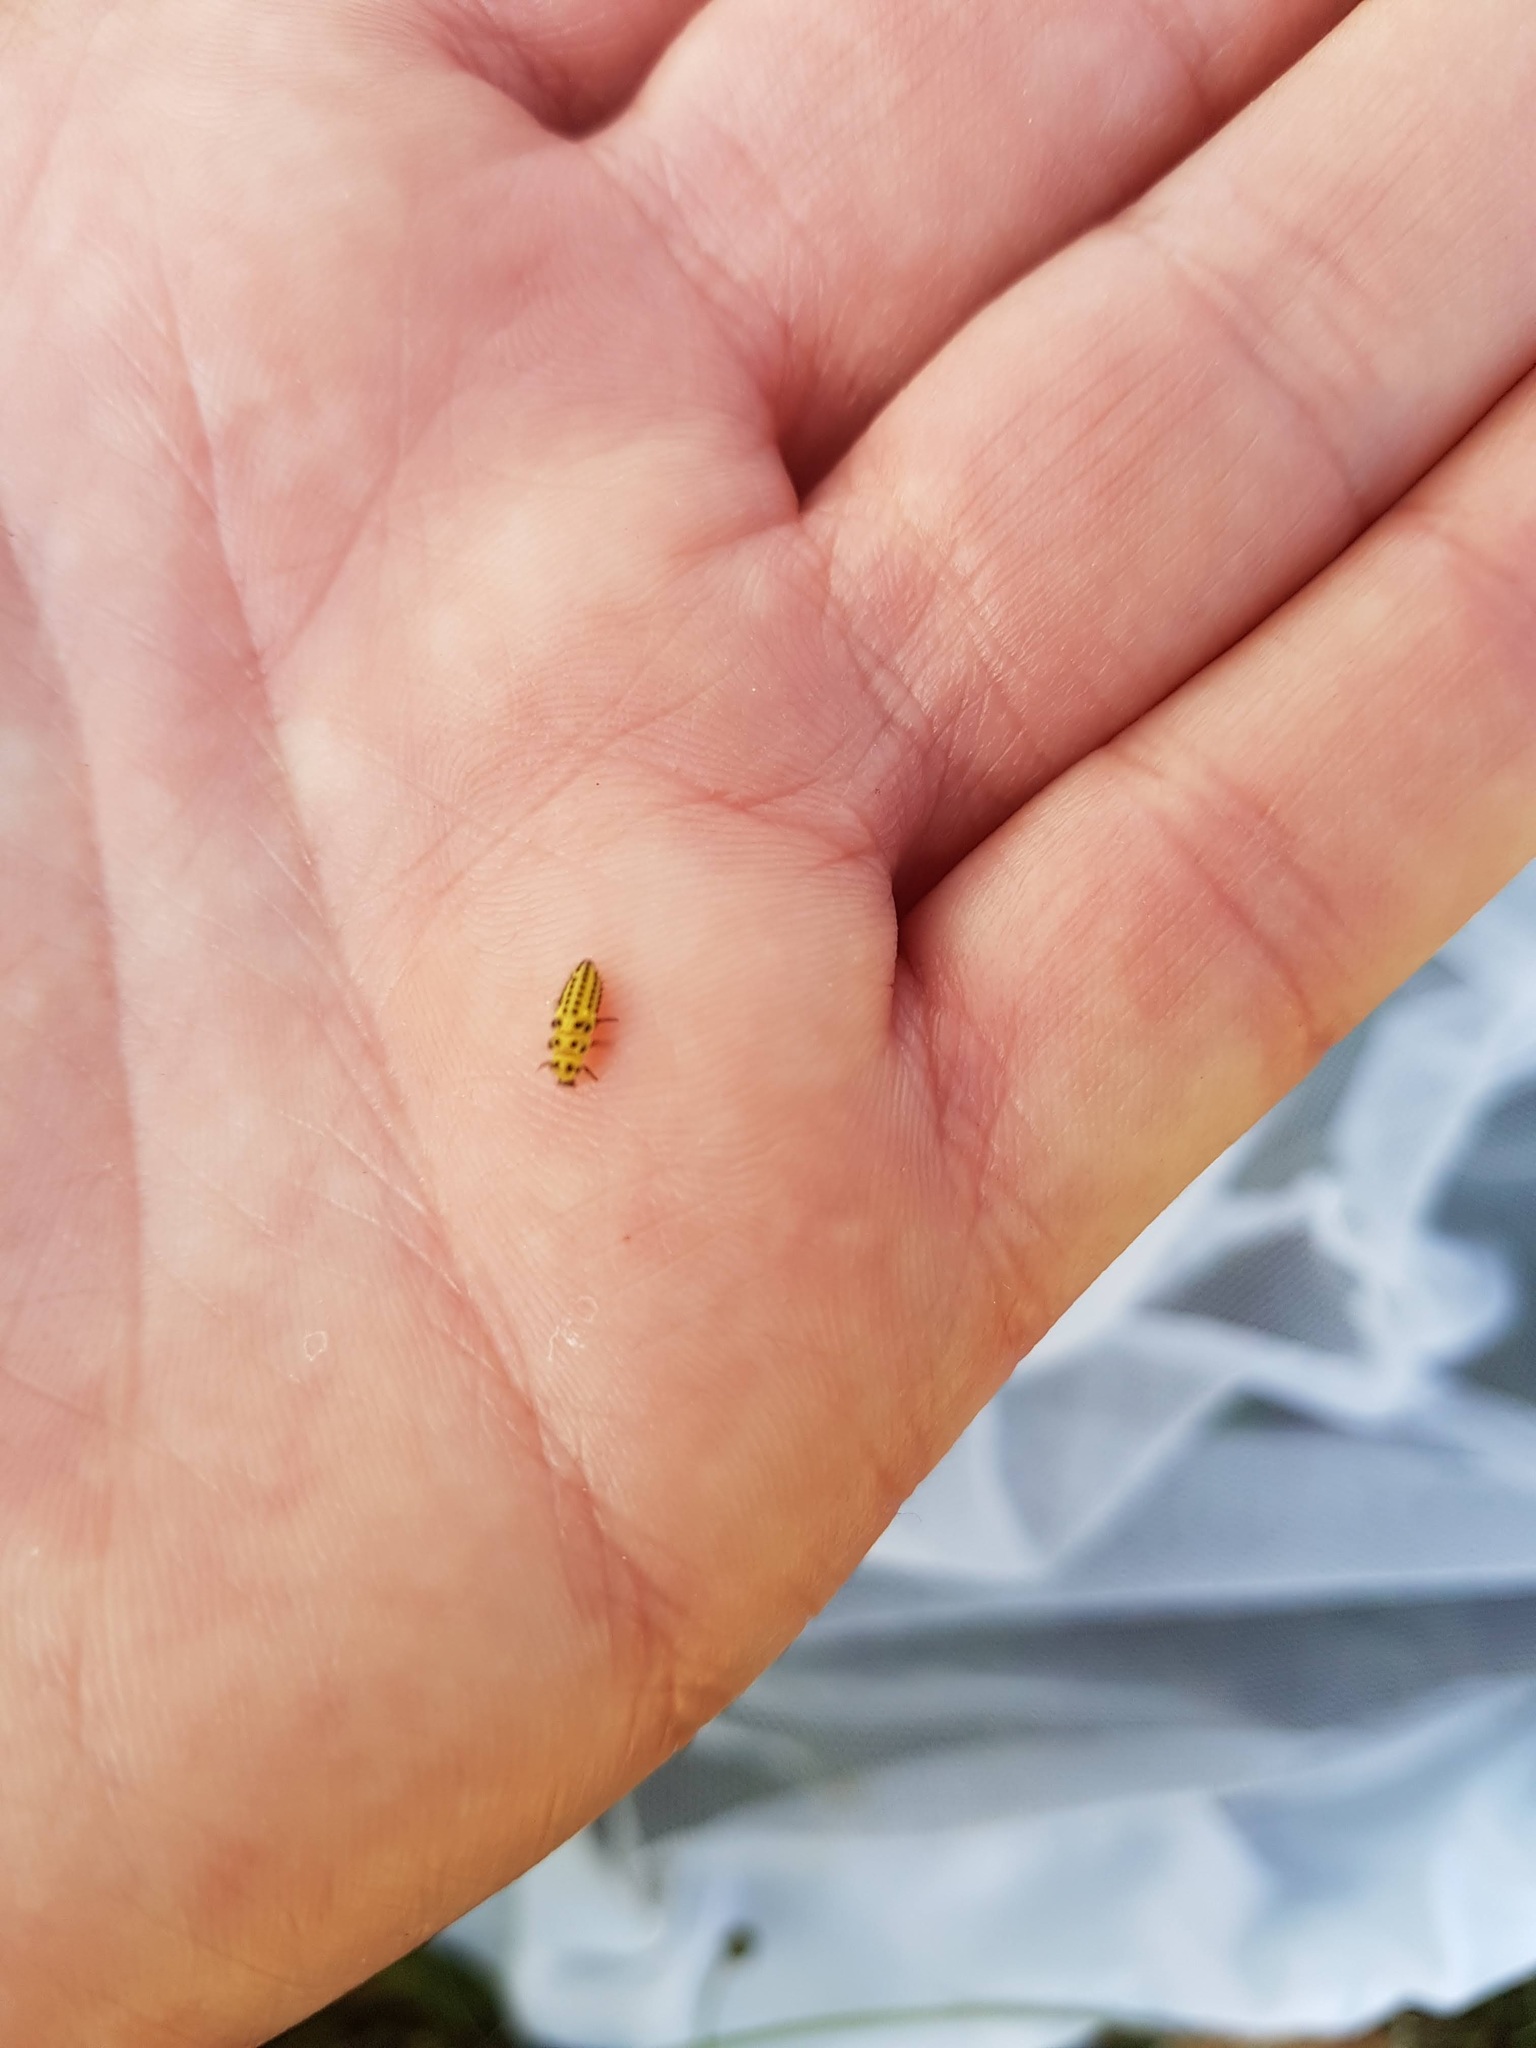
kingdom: Animalia
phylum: Arthropoda
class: Insecta
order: Coleoptera
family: Coccinellidae
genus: Psyllobora
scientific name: Psyllobora vigintiduopunctata
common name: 22-spot ladybird
